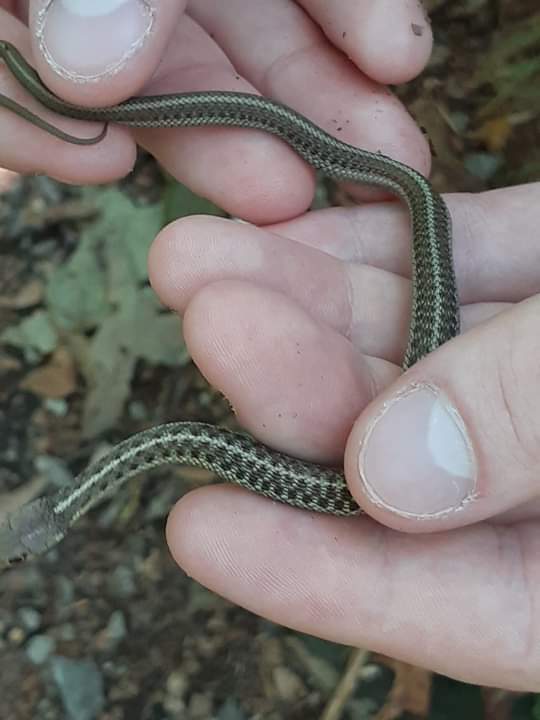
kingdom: Animalia
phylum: Chordata
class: Squamata
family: Colubridae
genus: Thamnophis
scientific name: Thamnophis sirtalis
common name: Common garter snake
